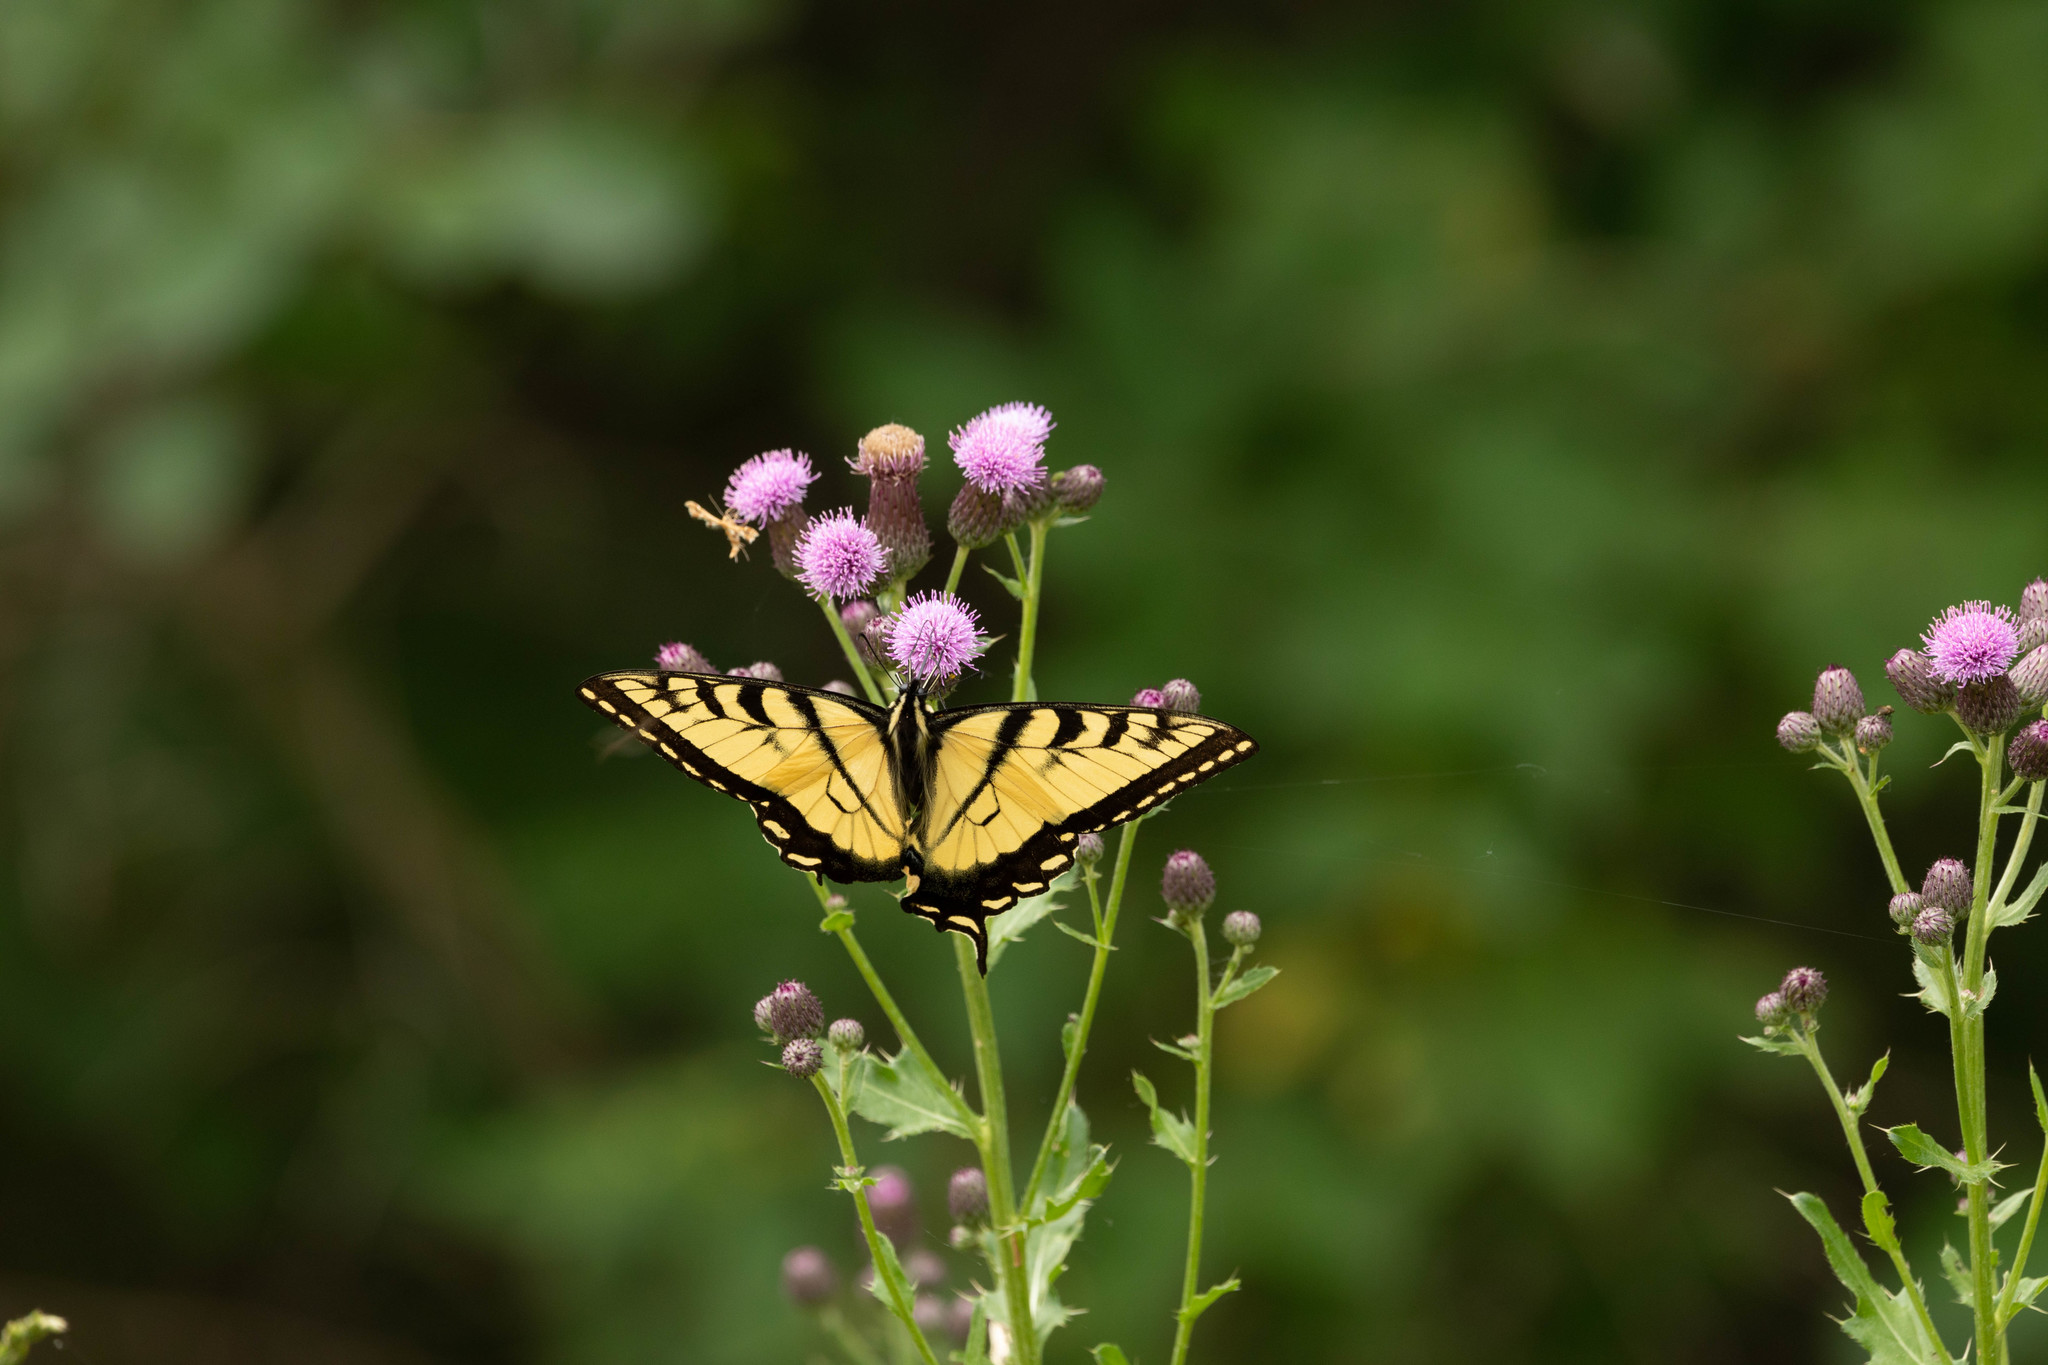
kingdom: Animalia
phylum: Arthropoda
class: Insecta
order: Lepidoptera
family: Papilionidae
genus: Pterourus
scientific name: Pterourus
